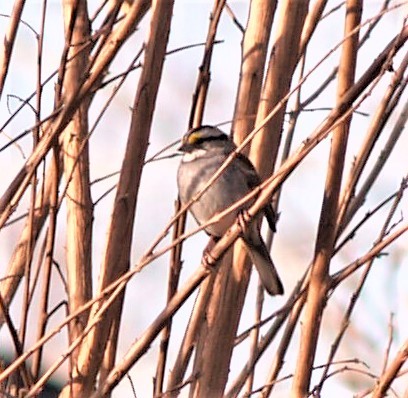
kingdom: Animalia
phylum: Chordata
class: Aves
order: Passeriformes
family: Passerellidae
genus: Zonotrichia
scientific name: Zonotrichia albicollis
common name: White-throated sparrow
